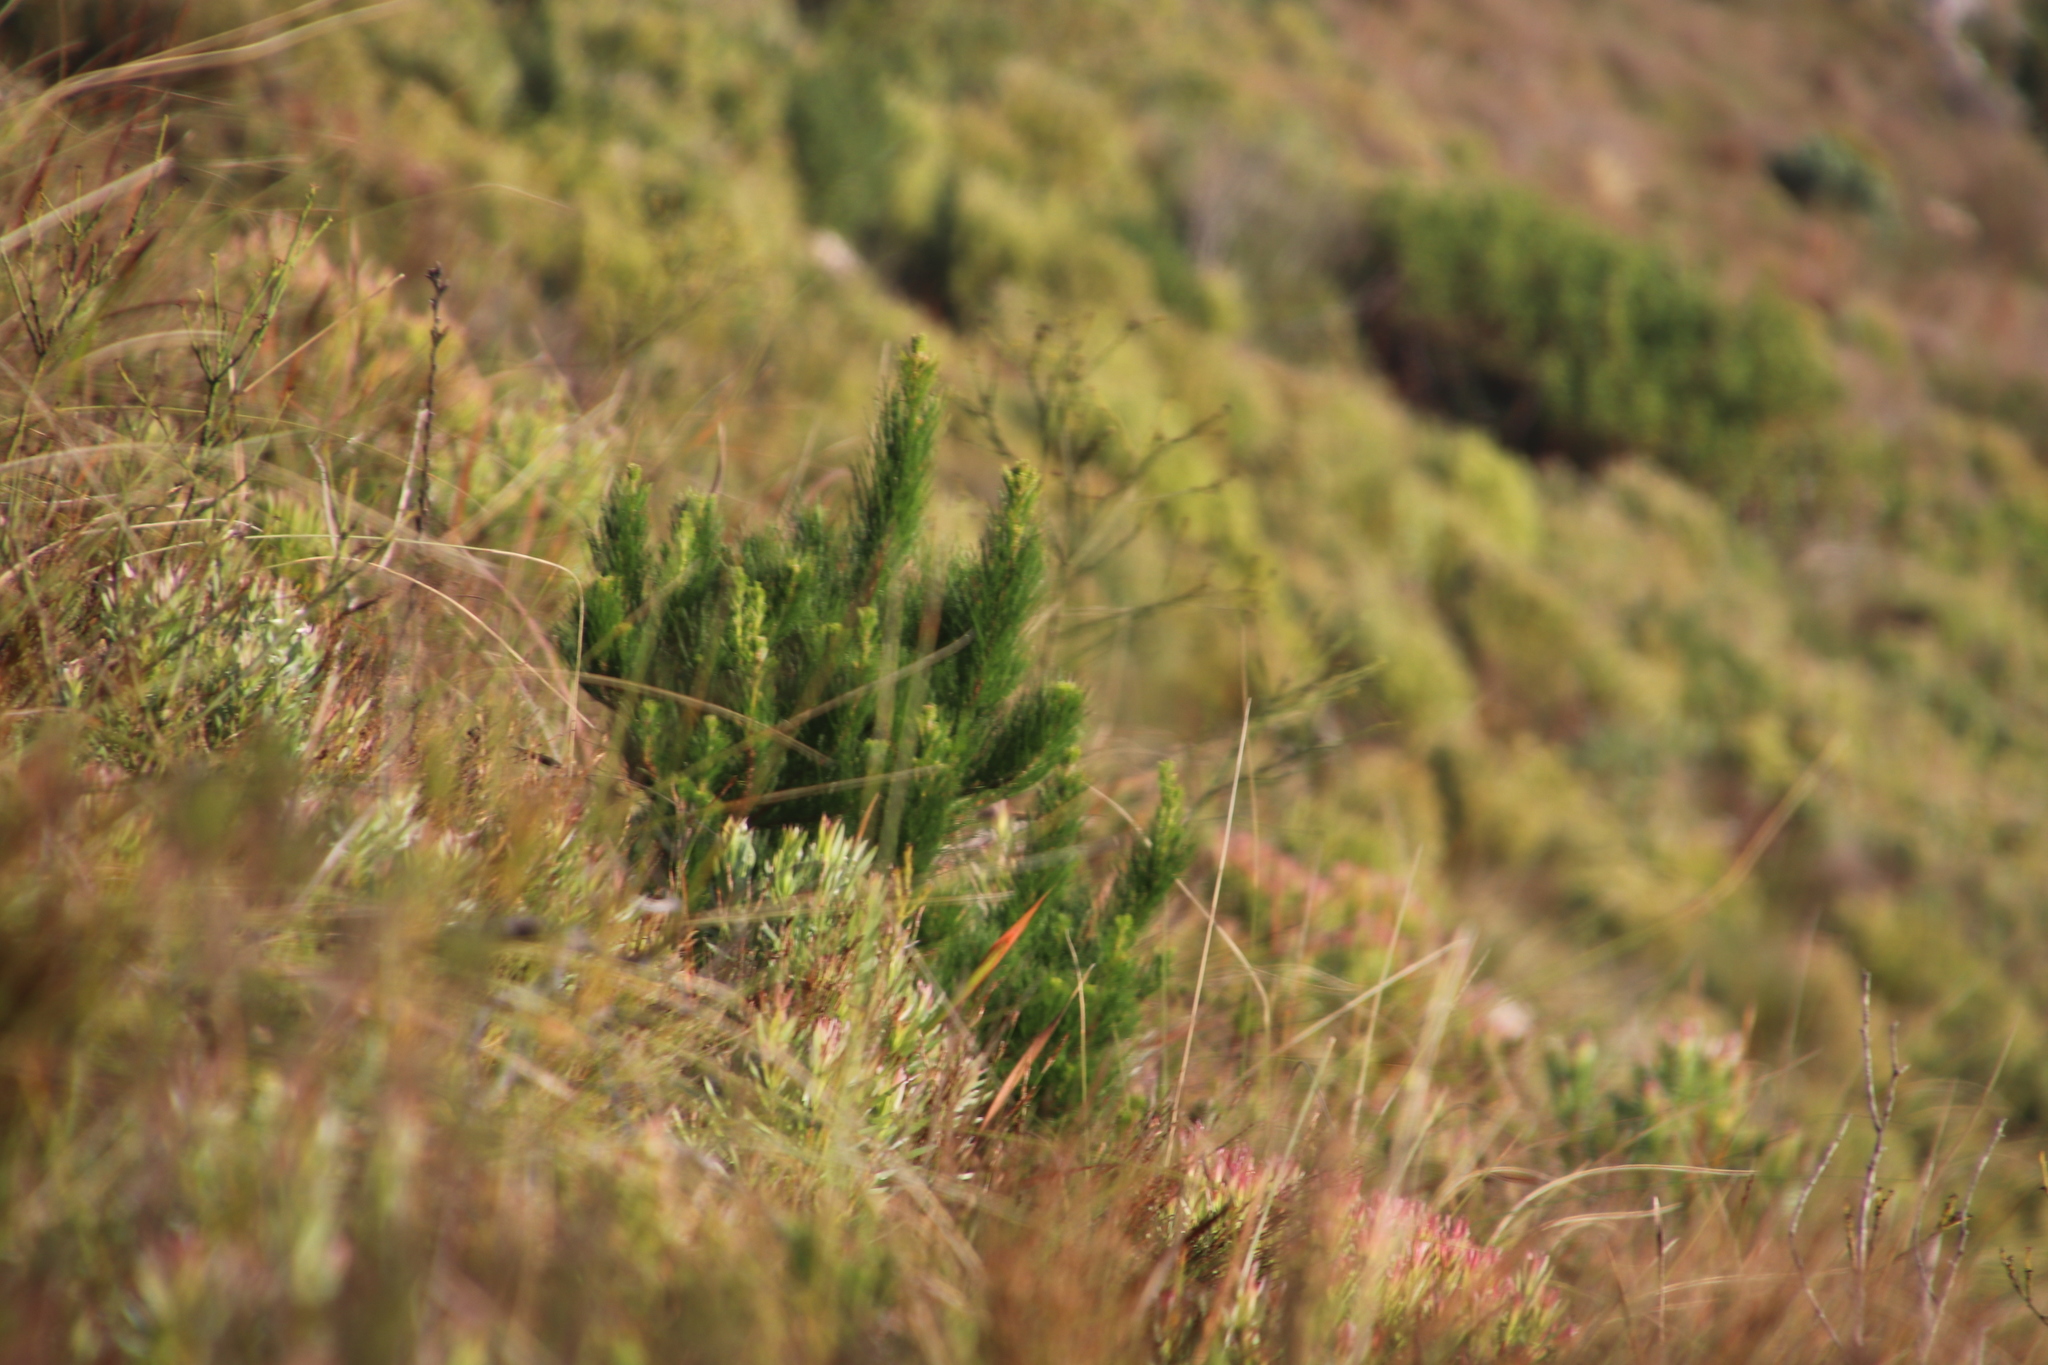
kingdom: Plantae
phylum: Tracheophyta
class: Pinopsida
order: Pinales
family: Pinaceae
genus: Pinus
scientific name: Pinus radiata
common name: Monterey pine
